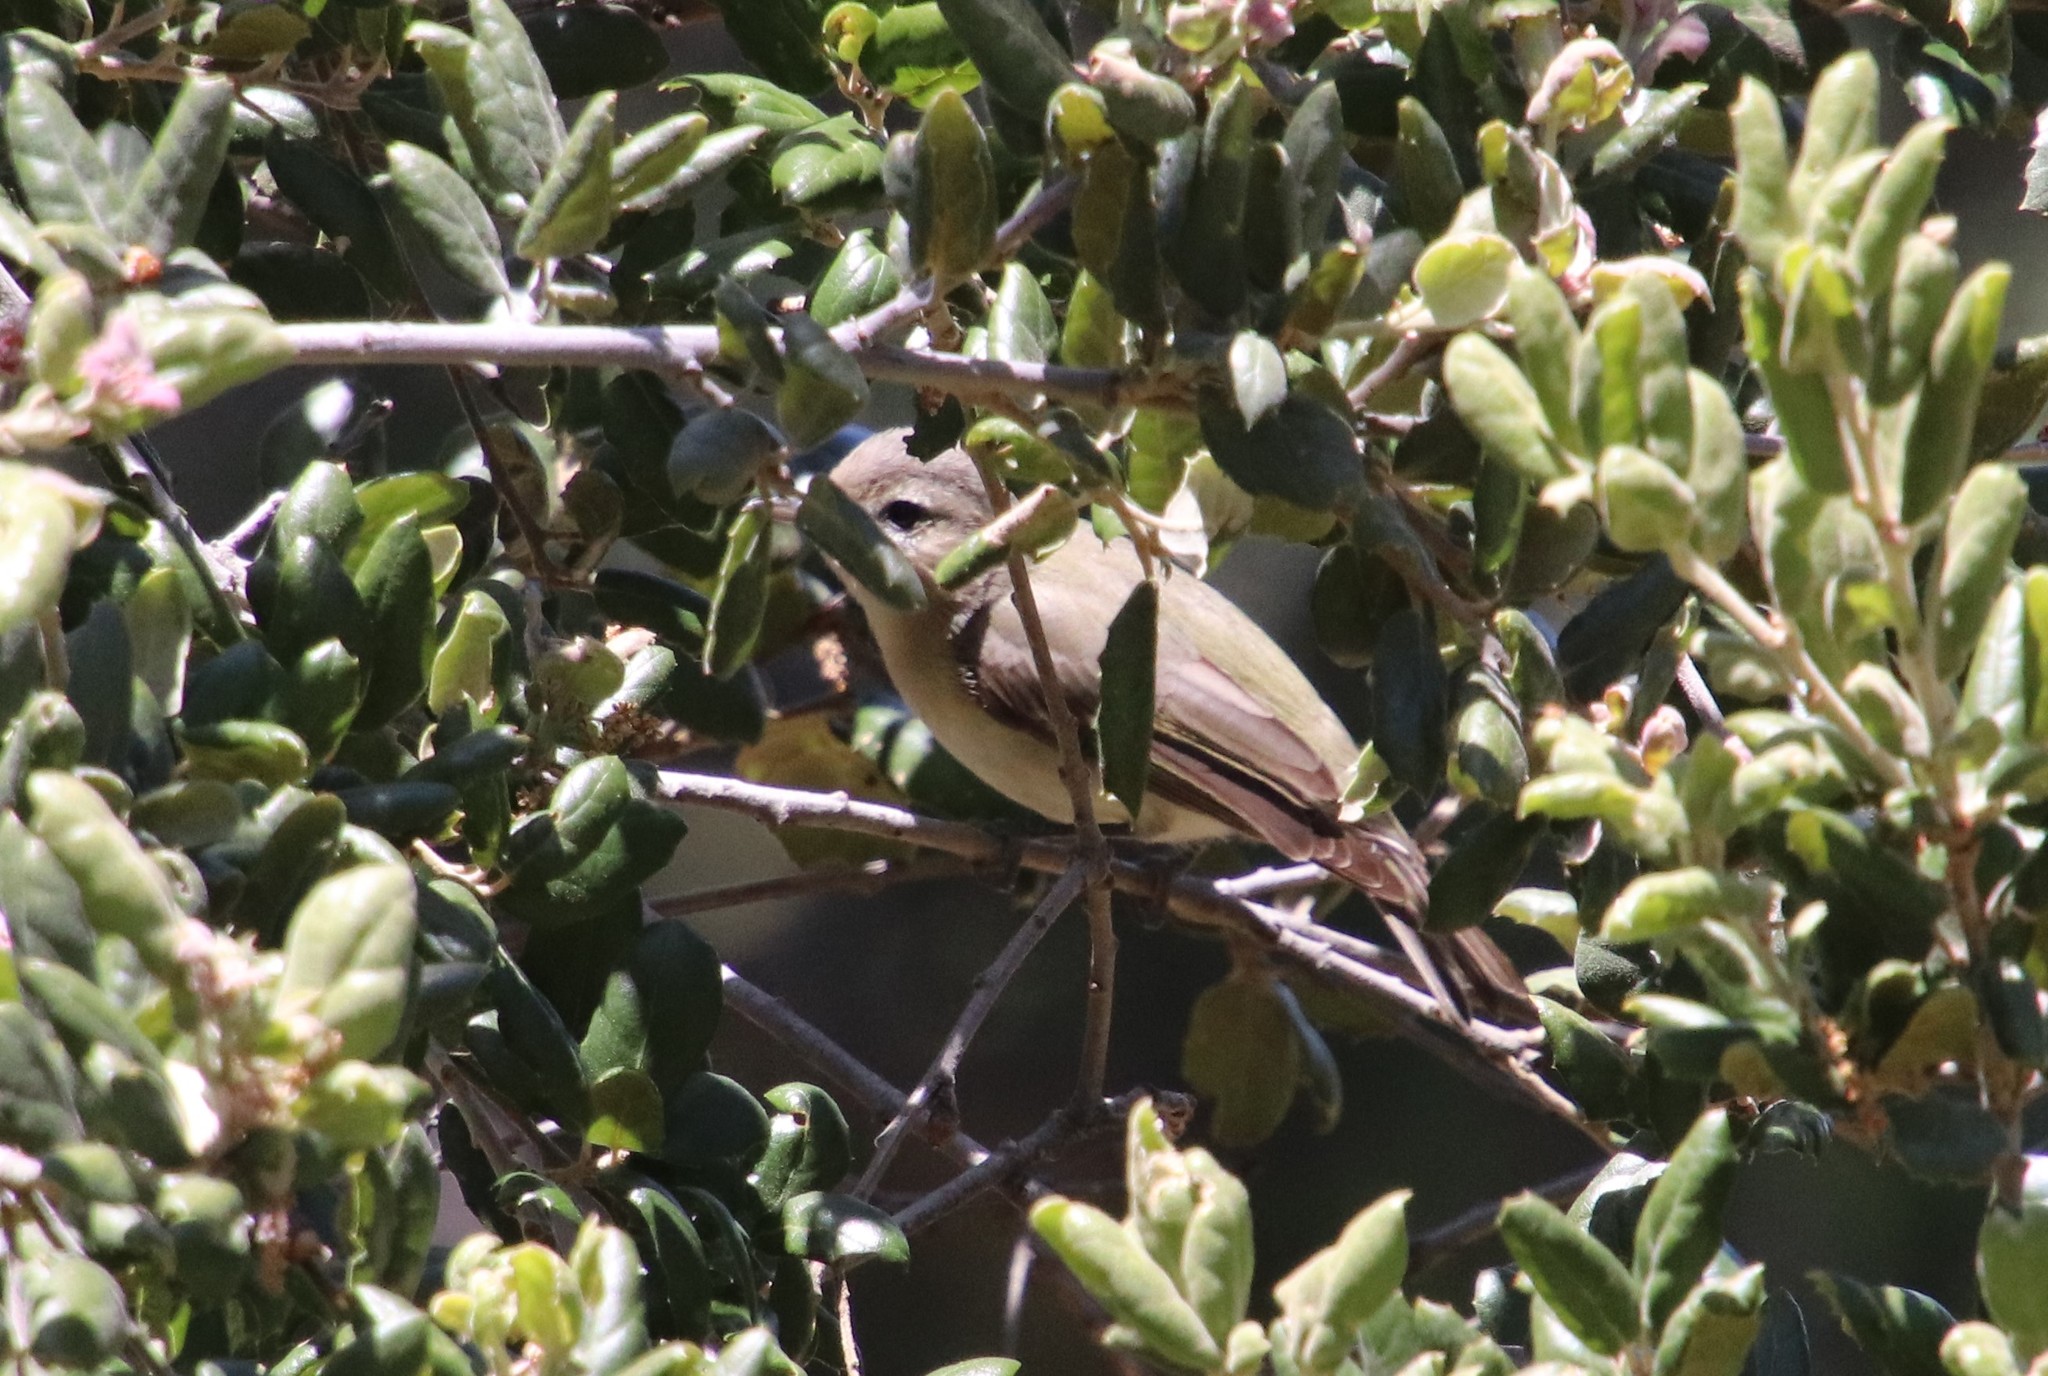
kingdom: Animalia
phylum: Chordata
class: Aves
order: Passeriformes
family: Vireonidae
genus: Vireo
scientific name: Vireo gilvus
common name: Warbling vireo
